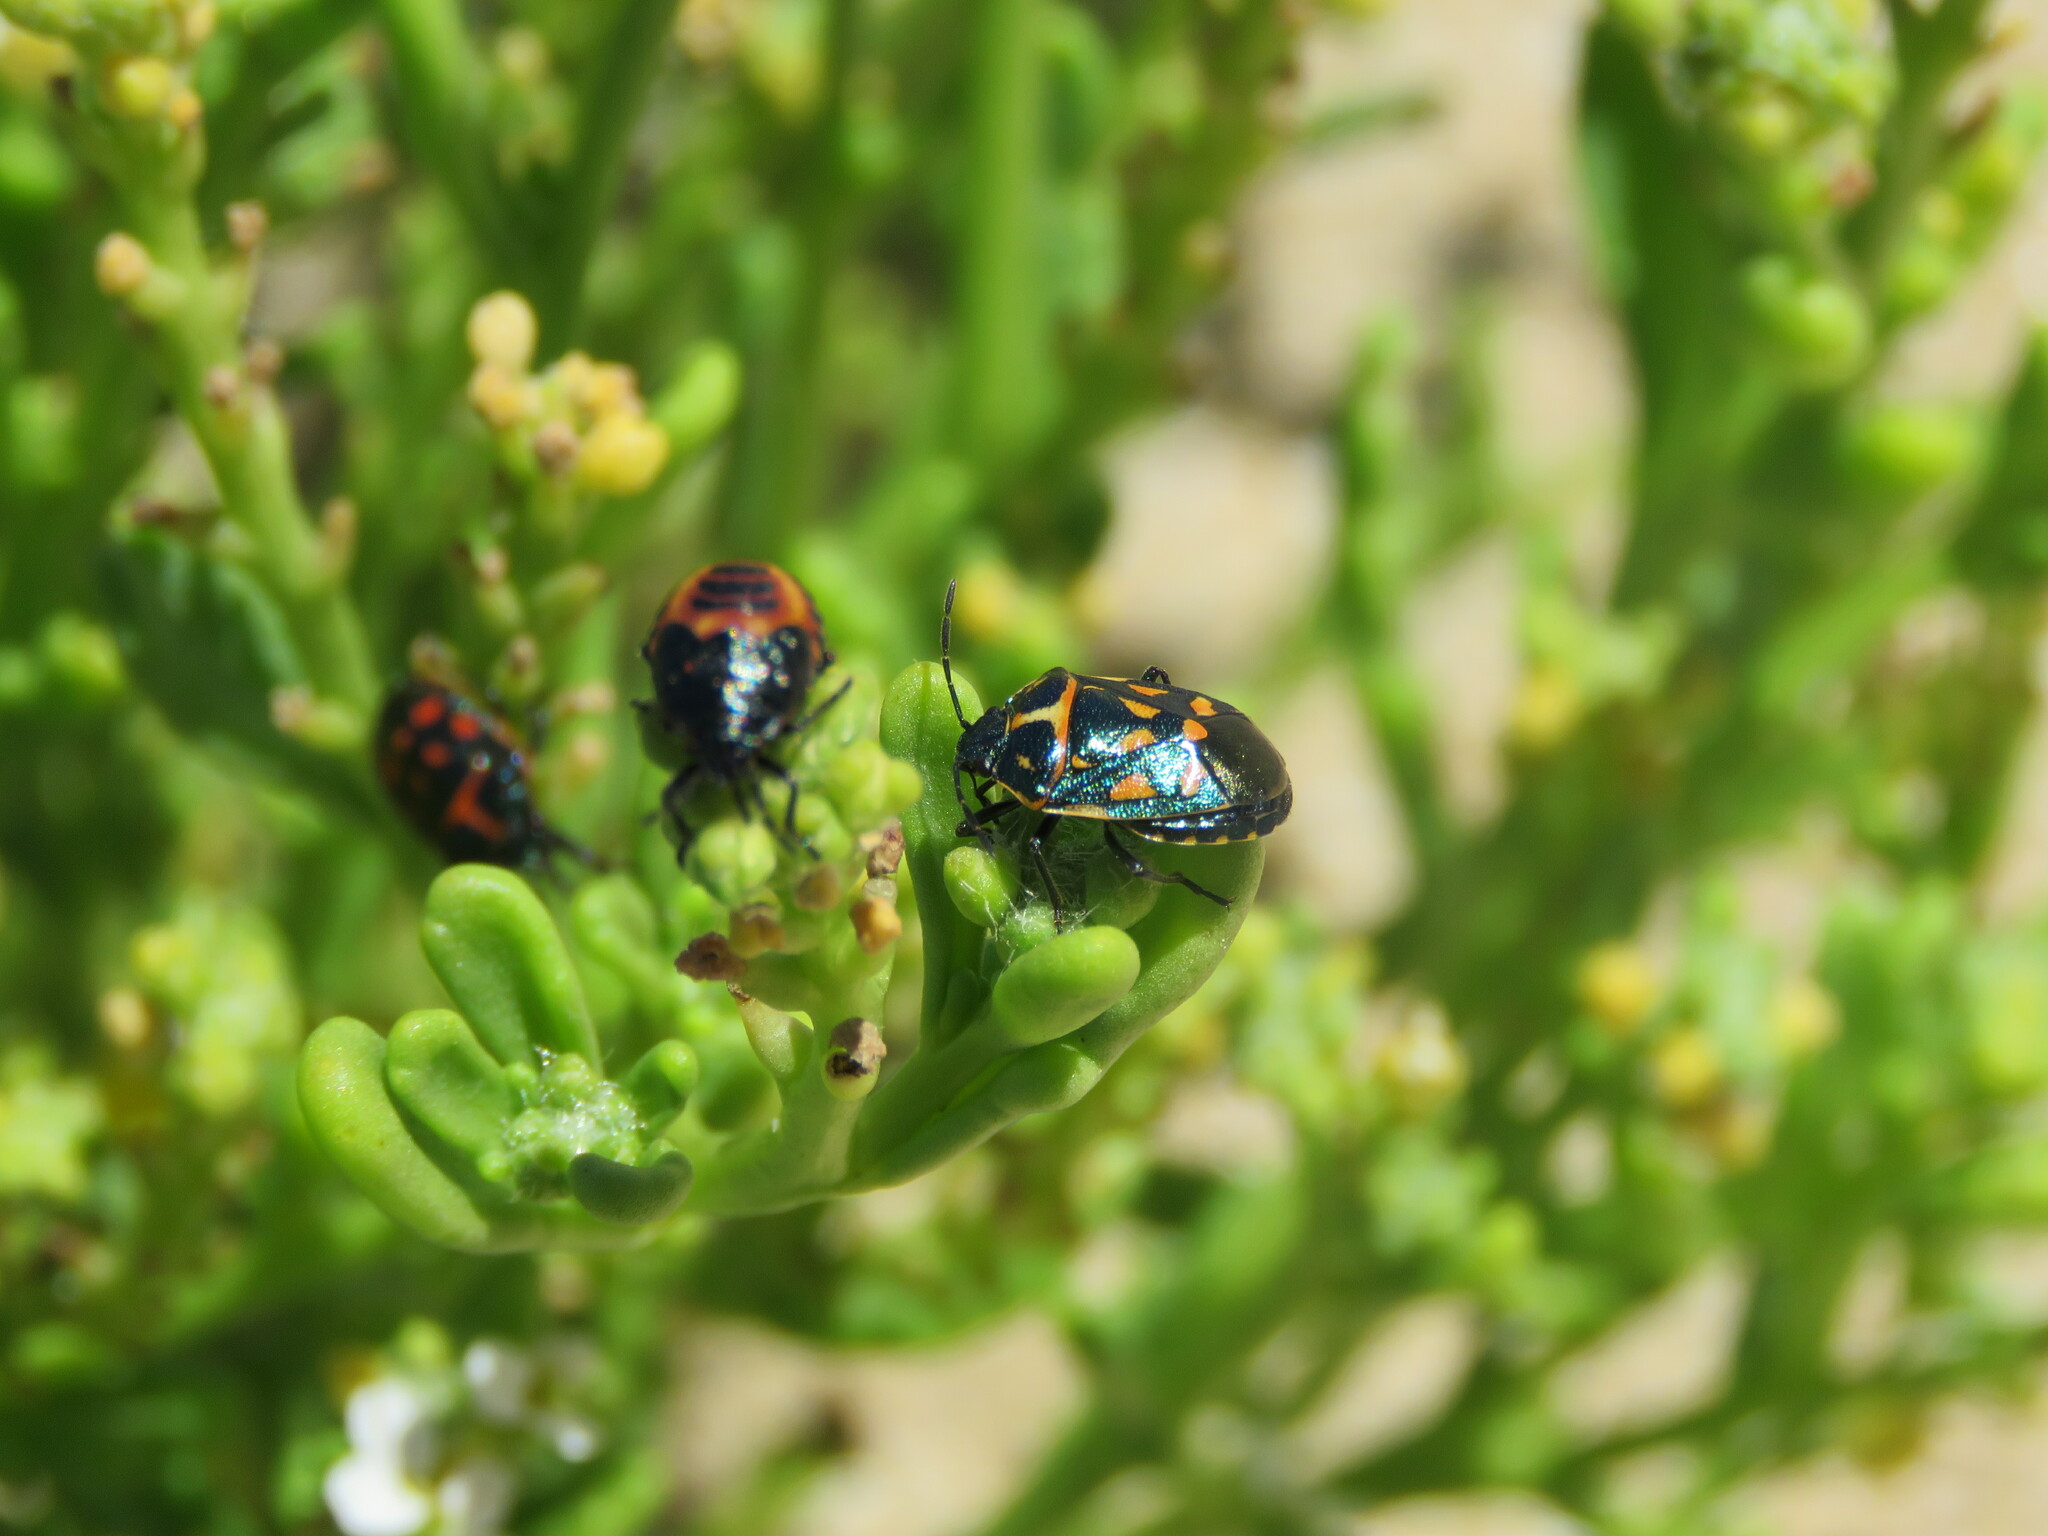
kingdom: Animalia
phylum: Arthropoda
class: Insecta
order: Hemiptera
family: Pentatomidae
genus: Eurydema
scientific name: Eurydema herbacea
